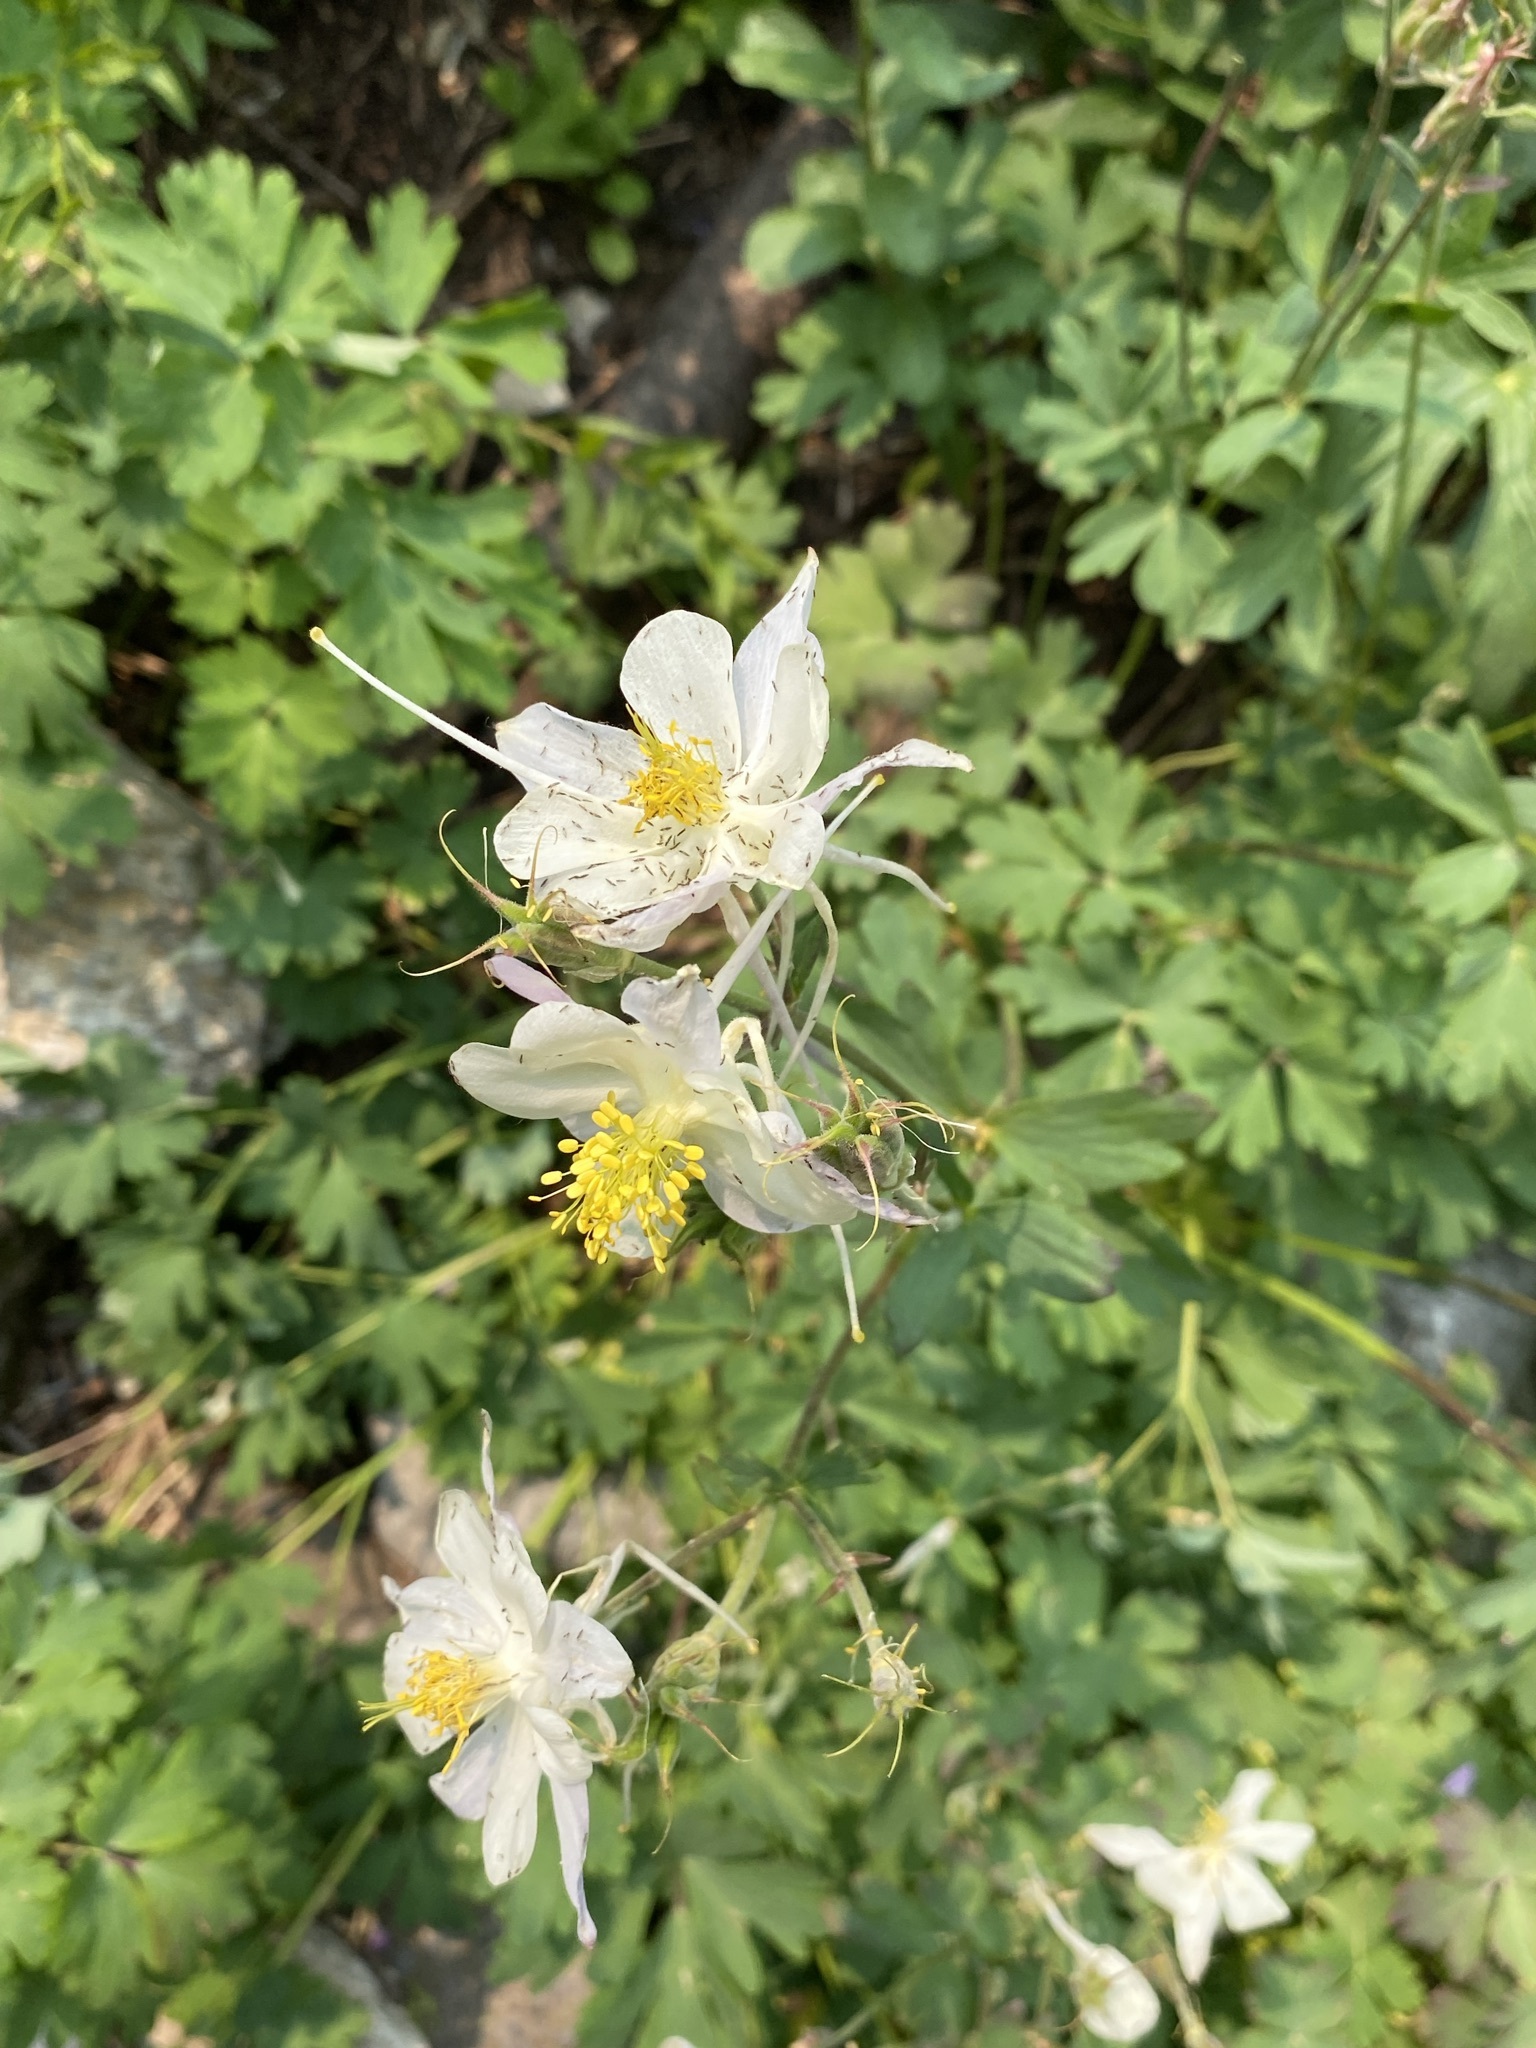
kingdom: Plantae
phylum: Tracheophyta
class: Magnoliopsida
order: Ranunculales
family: Ranunculaceae
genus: Aquilegia
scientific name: Aquilegia coerulea
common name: Rocky mountain columbine
